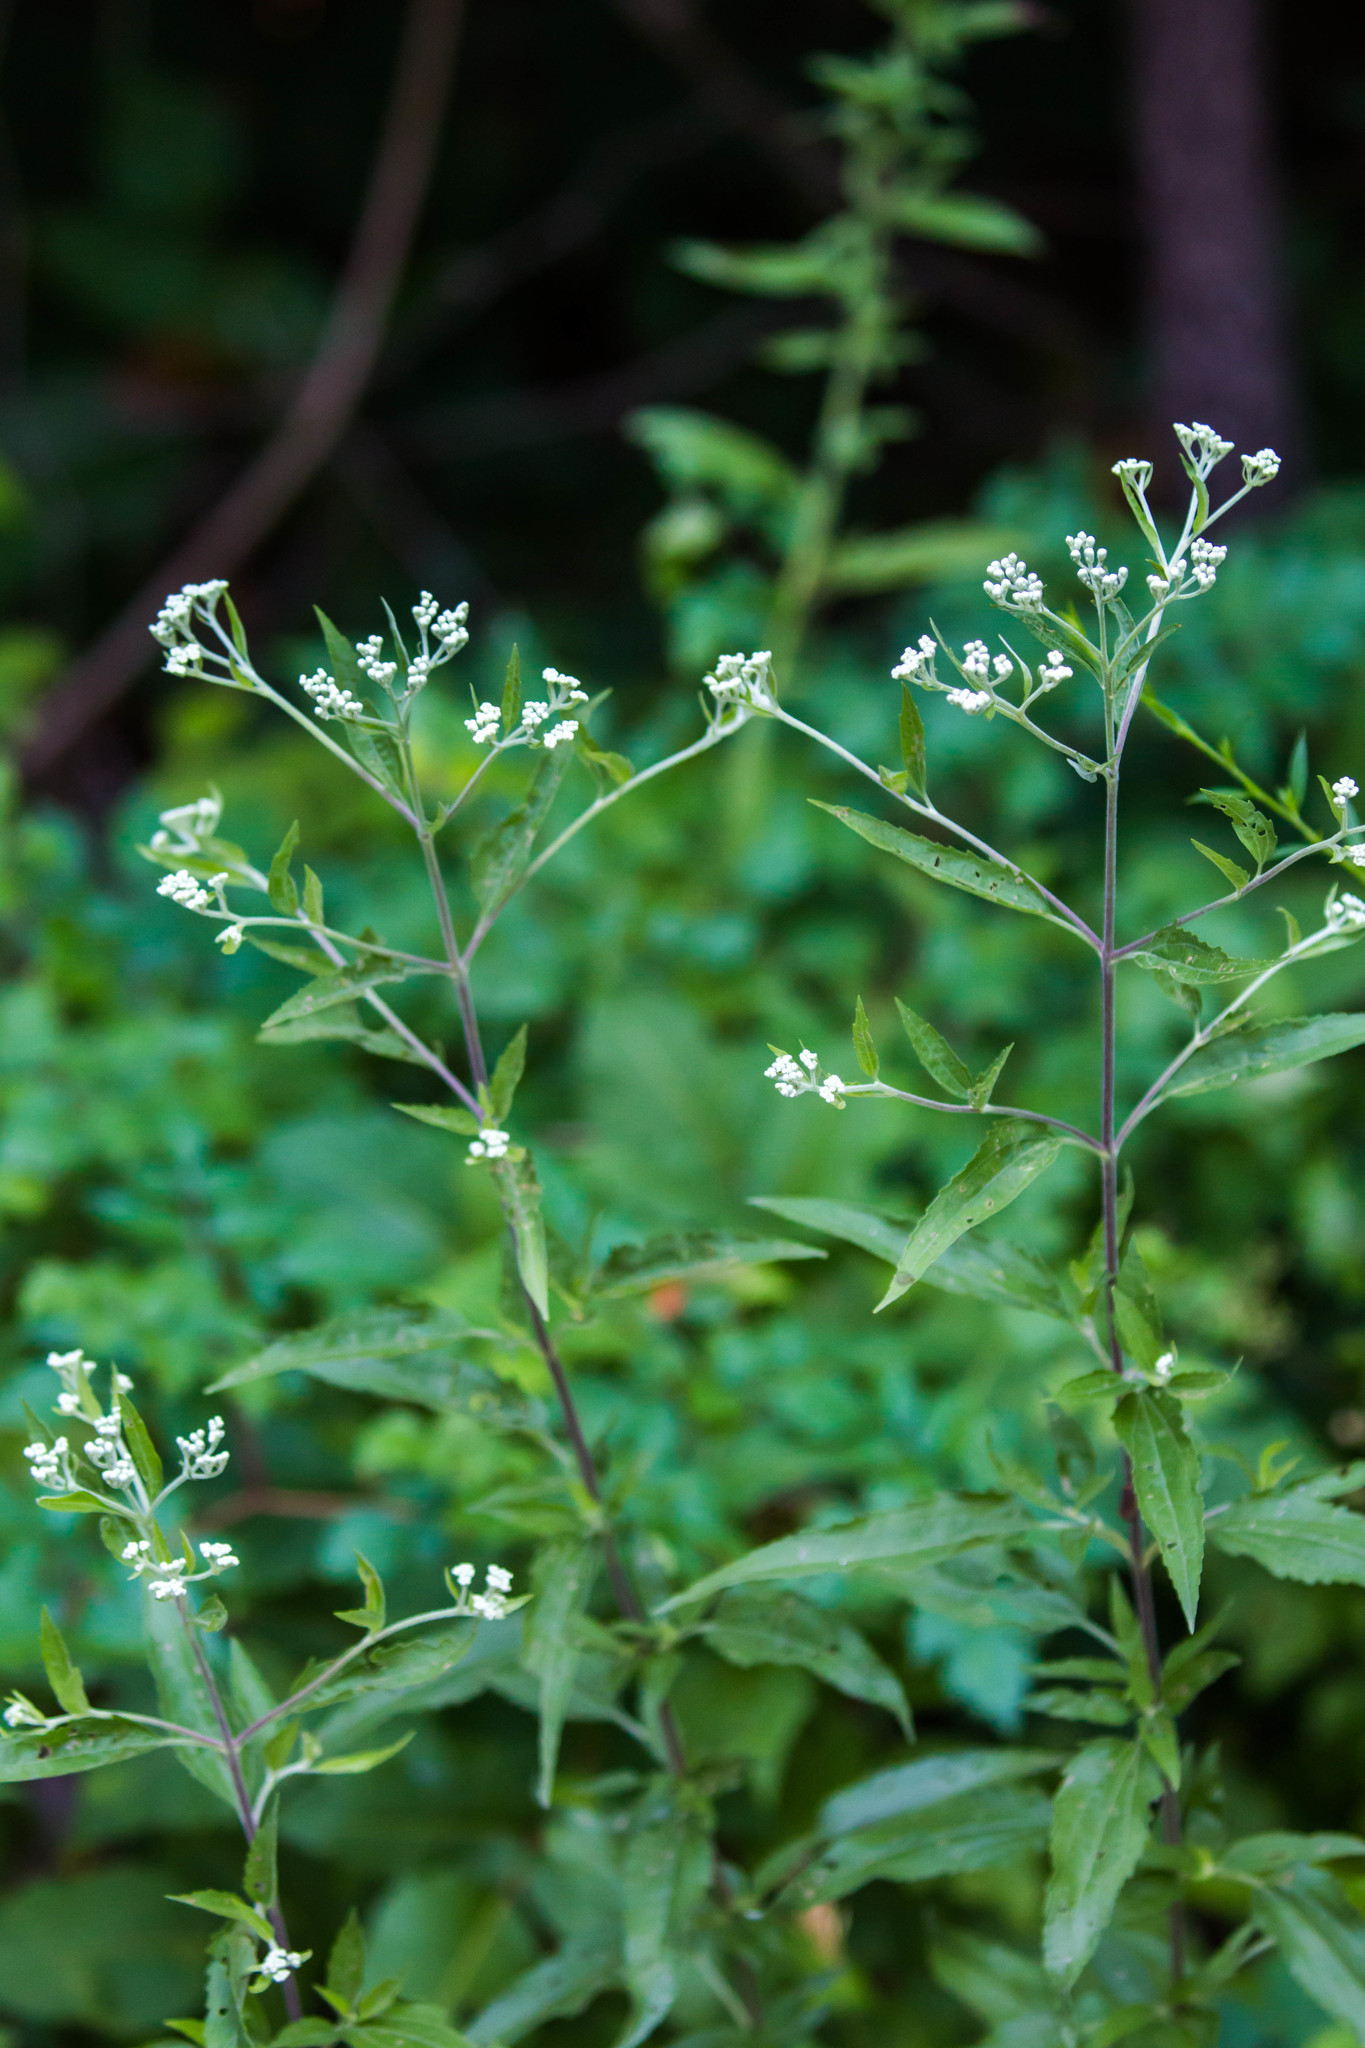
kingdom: Plantae
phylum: Tracheophyta
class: Magnoliopsida
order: Asterales
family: Asteraceae
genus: Eupatorium
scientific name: Eupatorium serotinum
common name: Late boneset
